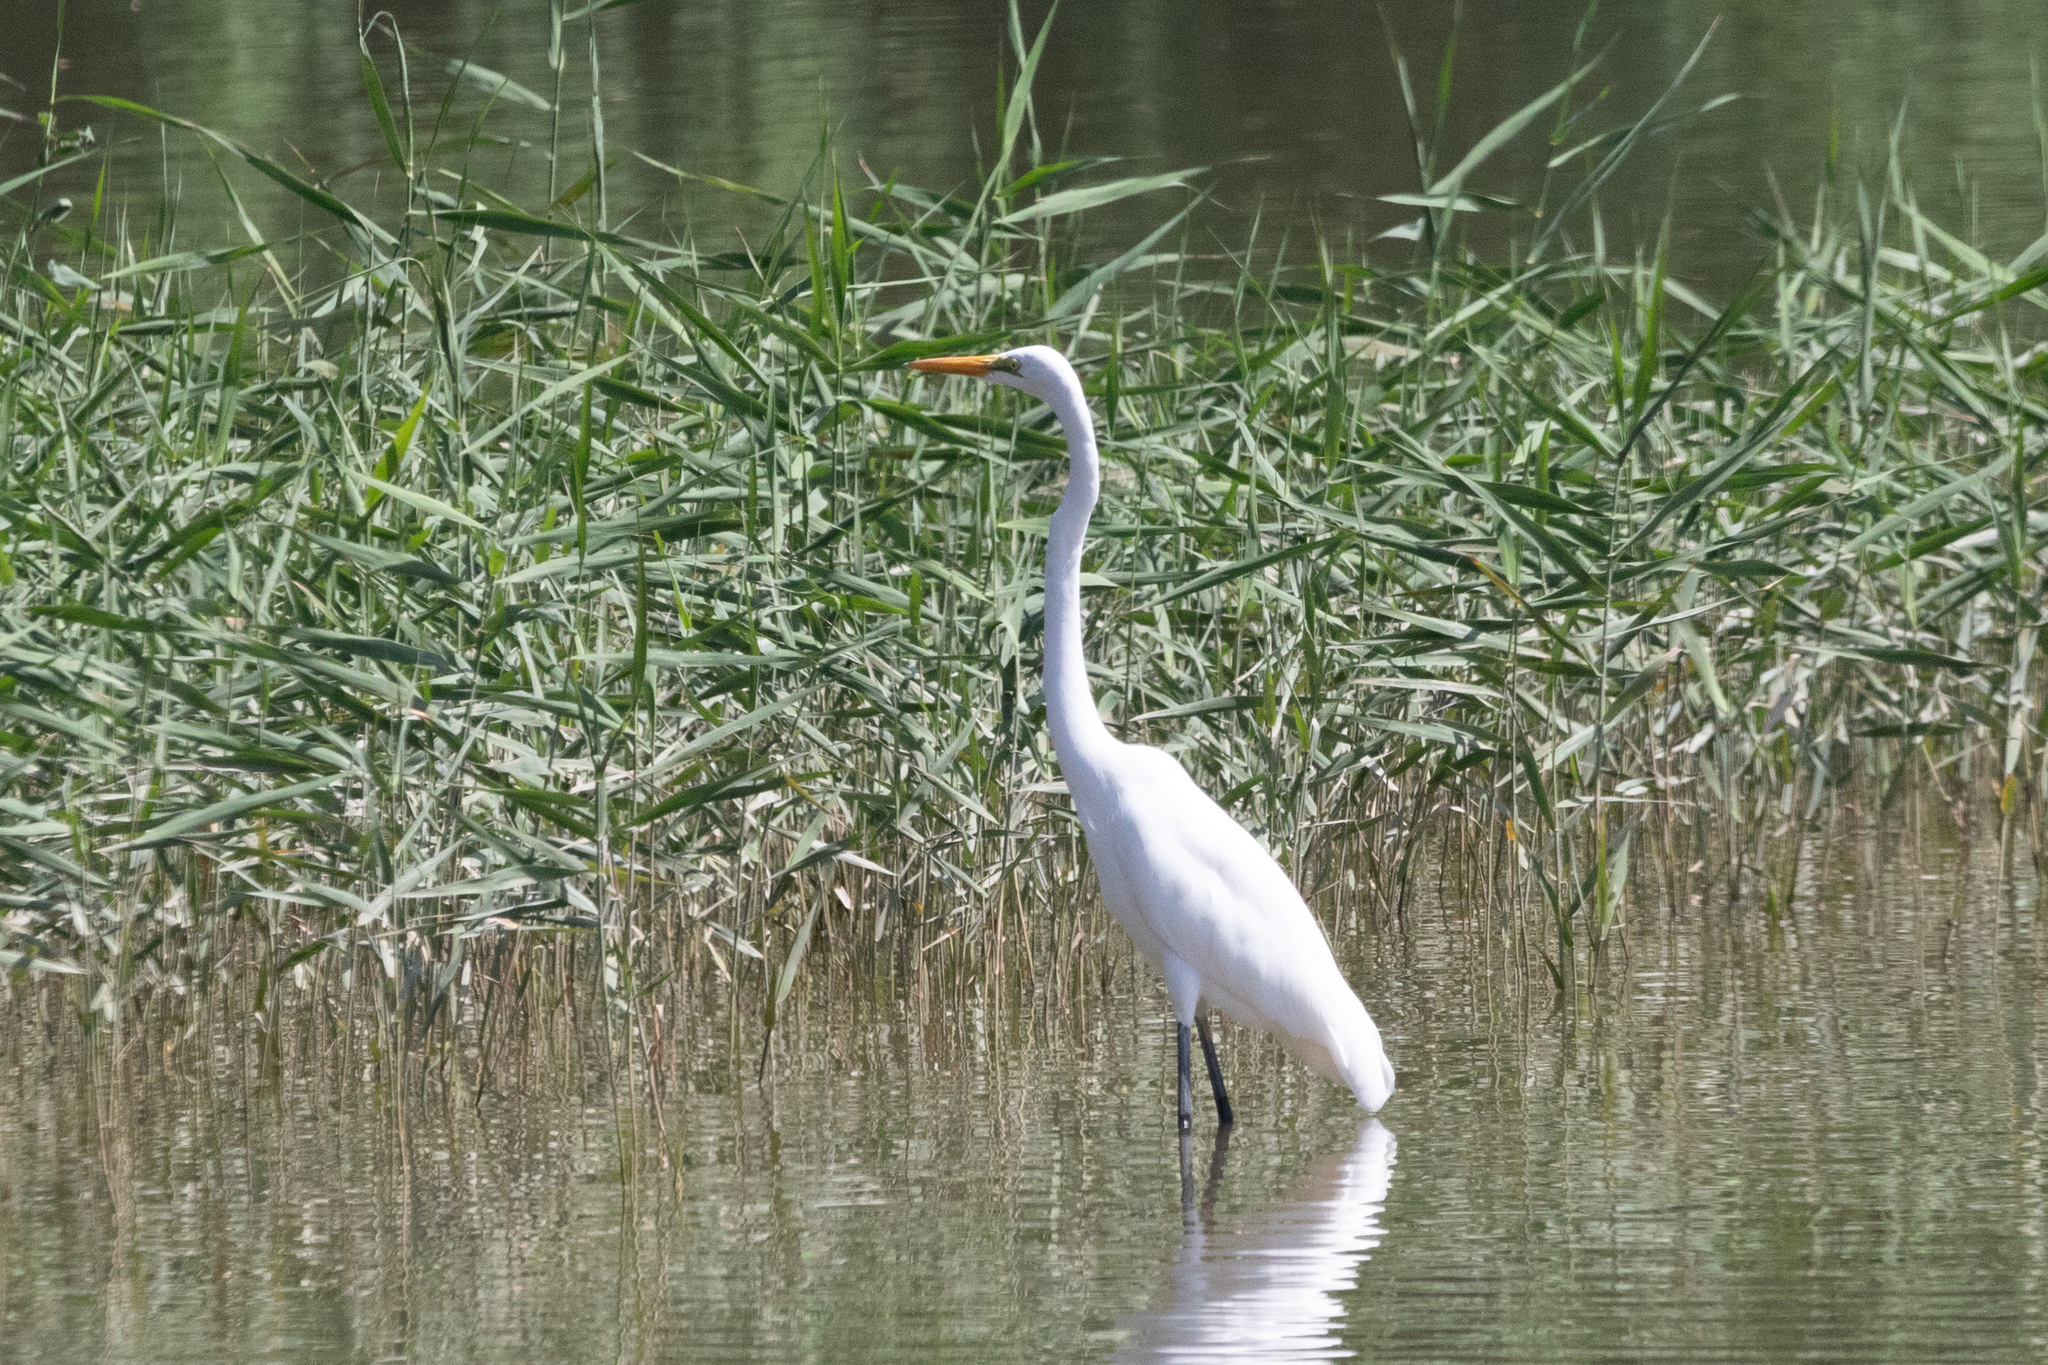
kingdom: Animalia
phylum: Chordata
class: Aves
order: Pelecaniformes
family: Ardeidae
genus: Ardea
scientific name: Ardea alba
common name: Great egret
